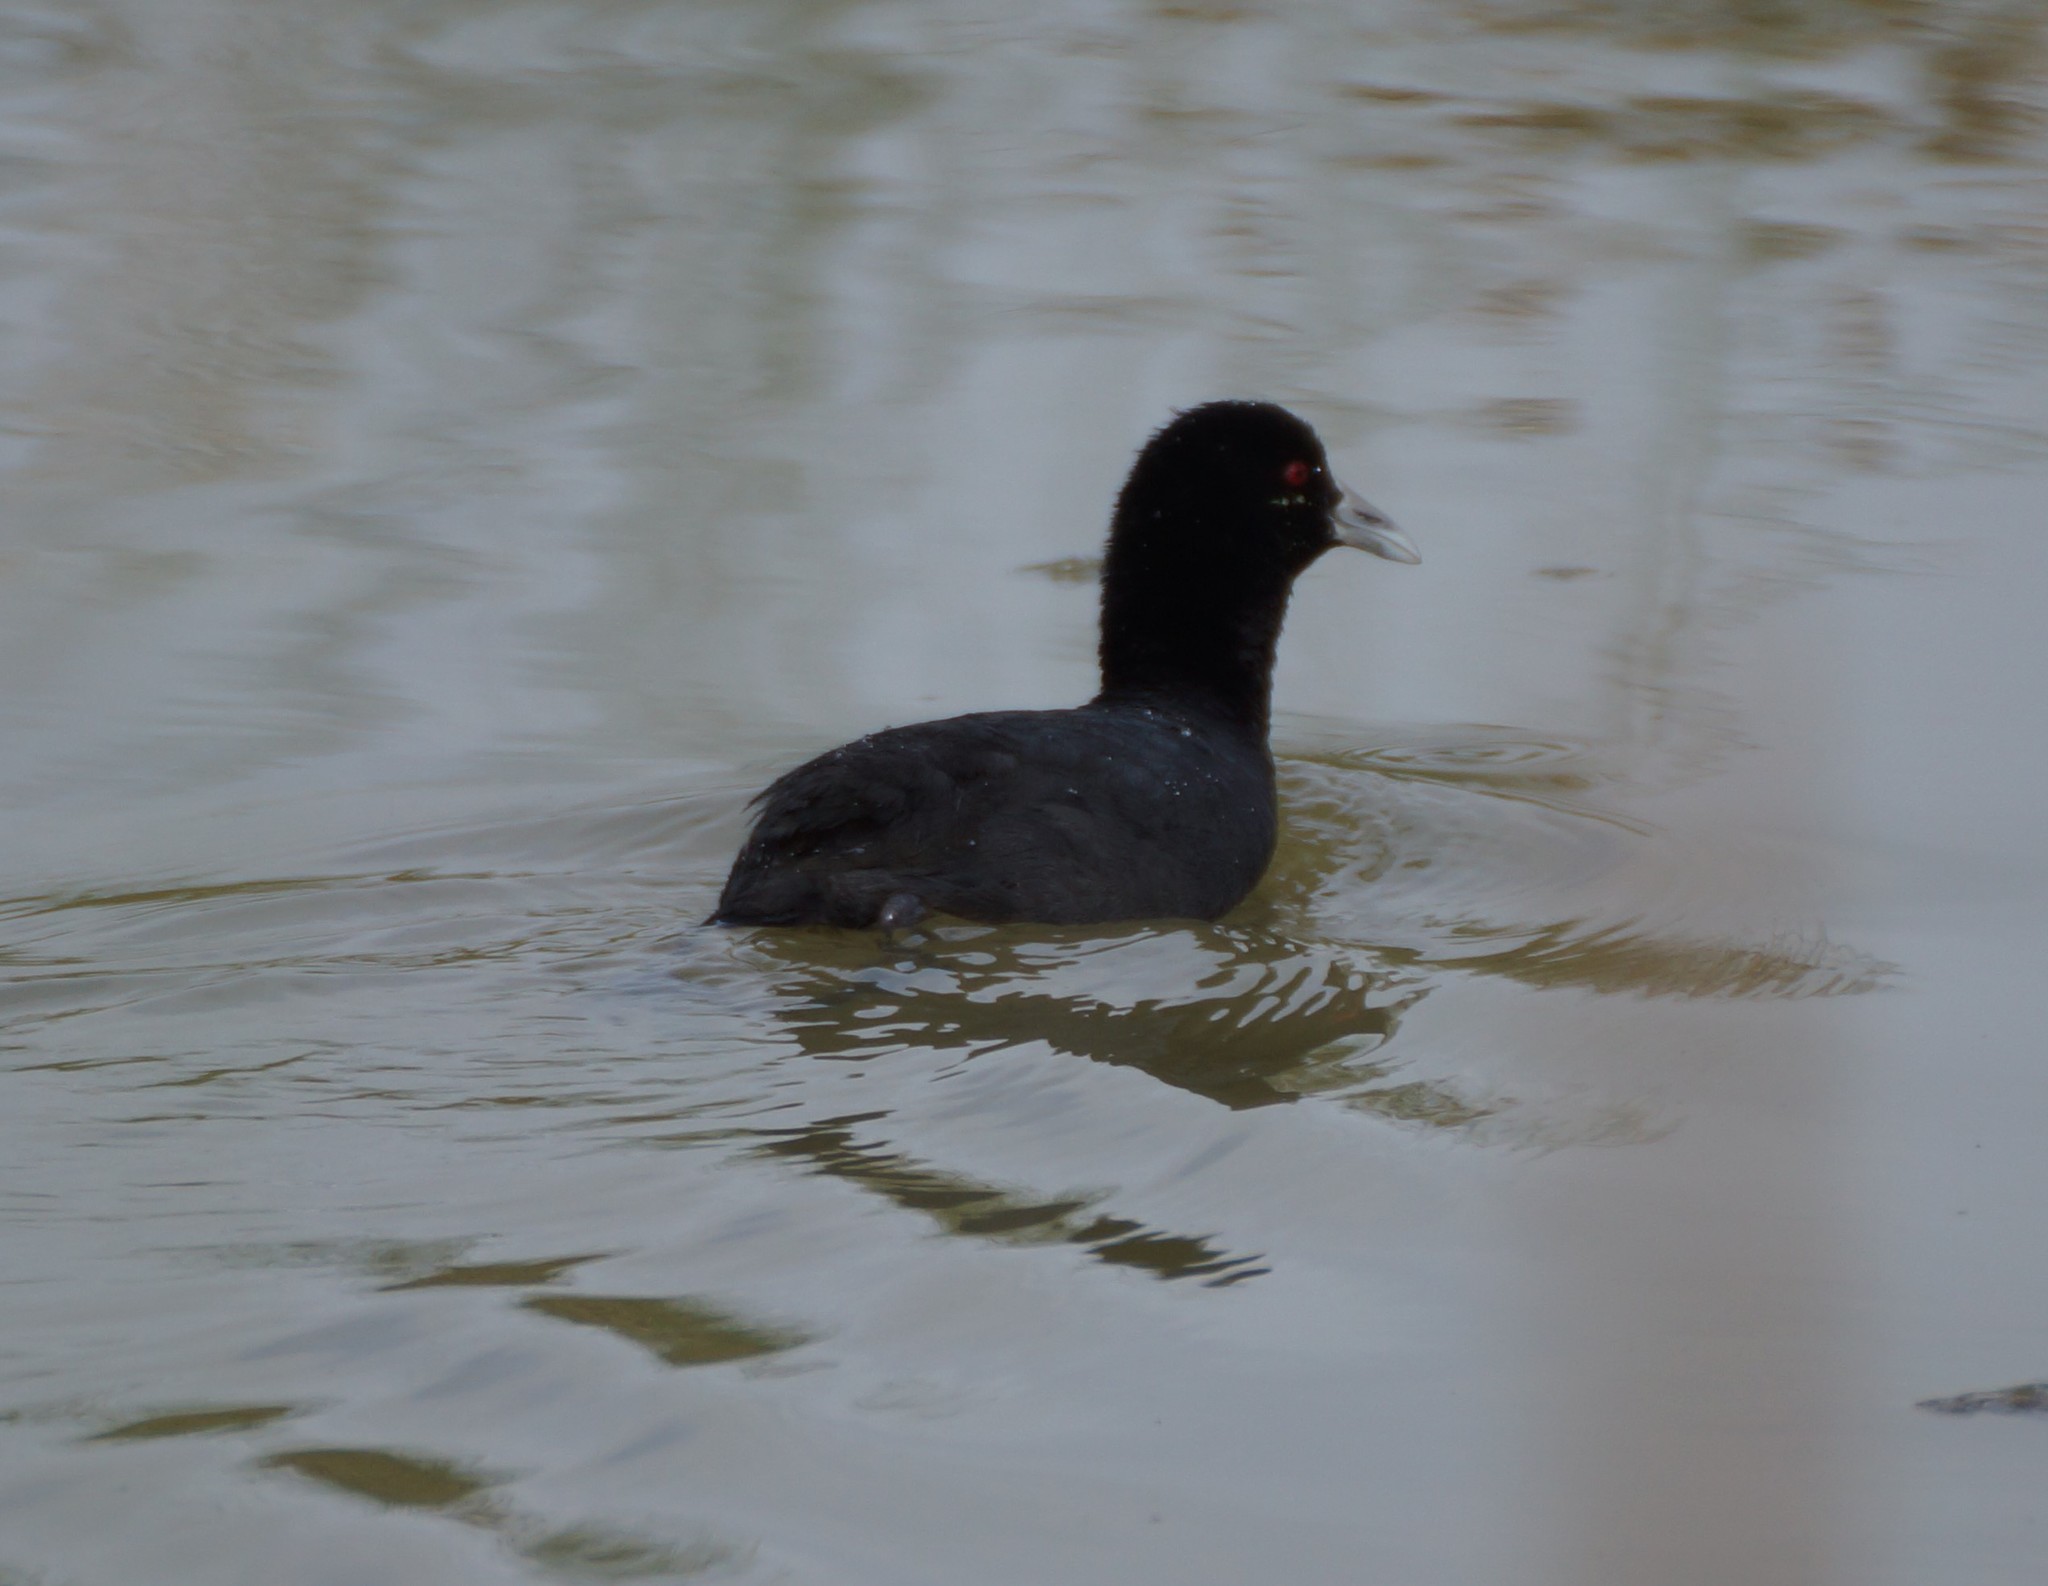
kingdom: Animalia
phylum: Chordata
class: Aves
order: Gruiformes
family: Rallidae
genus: Fulica
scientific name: Fulica atra
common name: Eurasian coot
